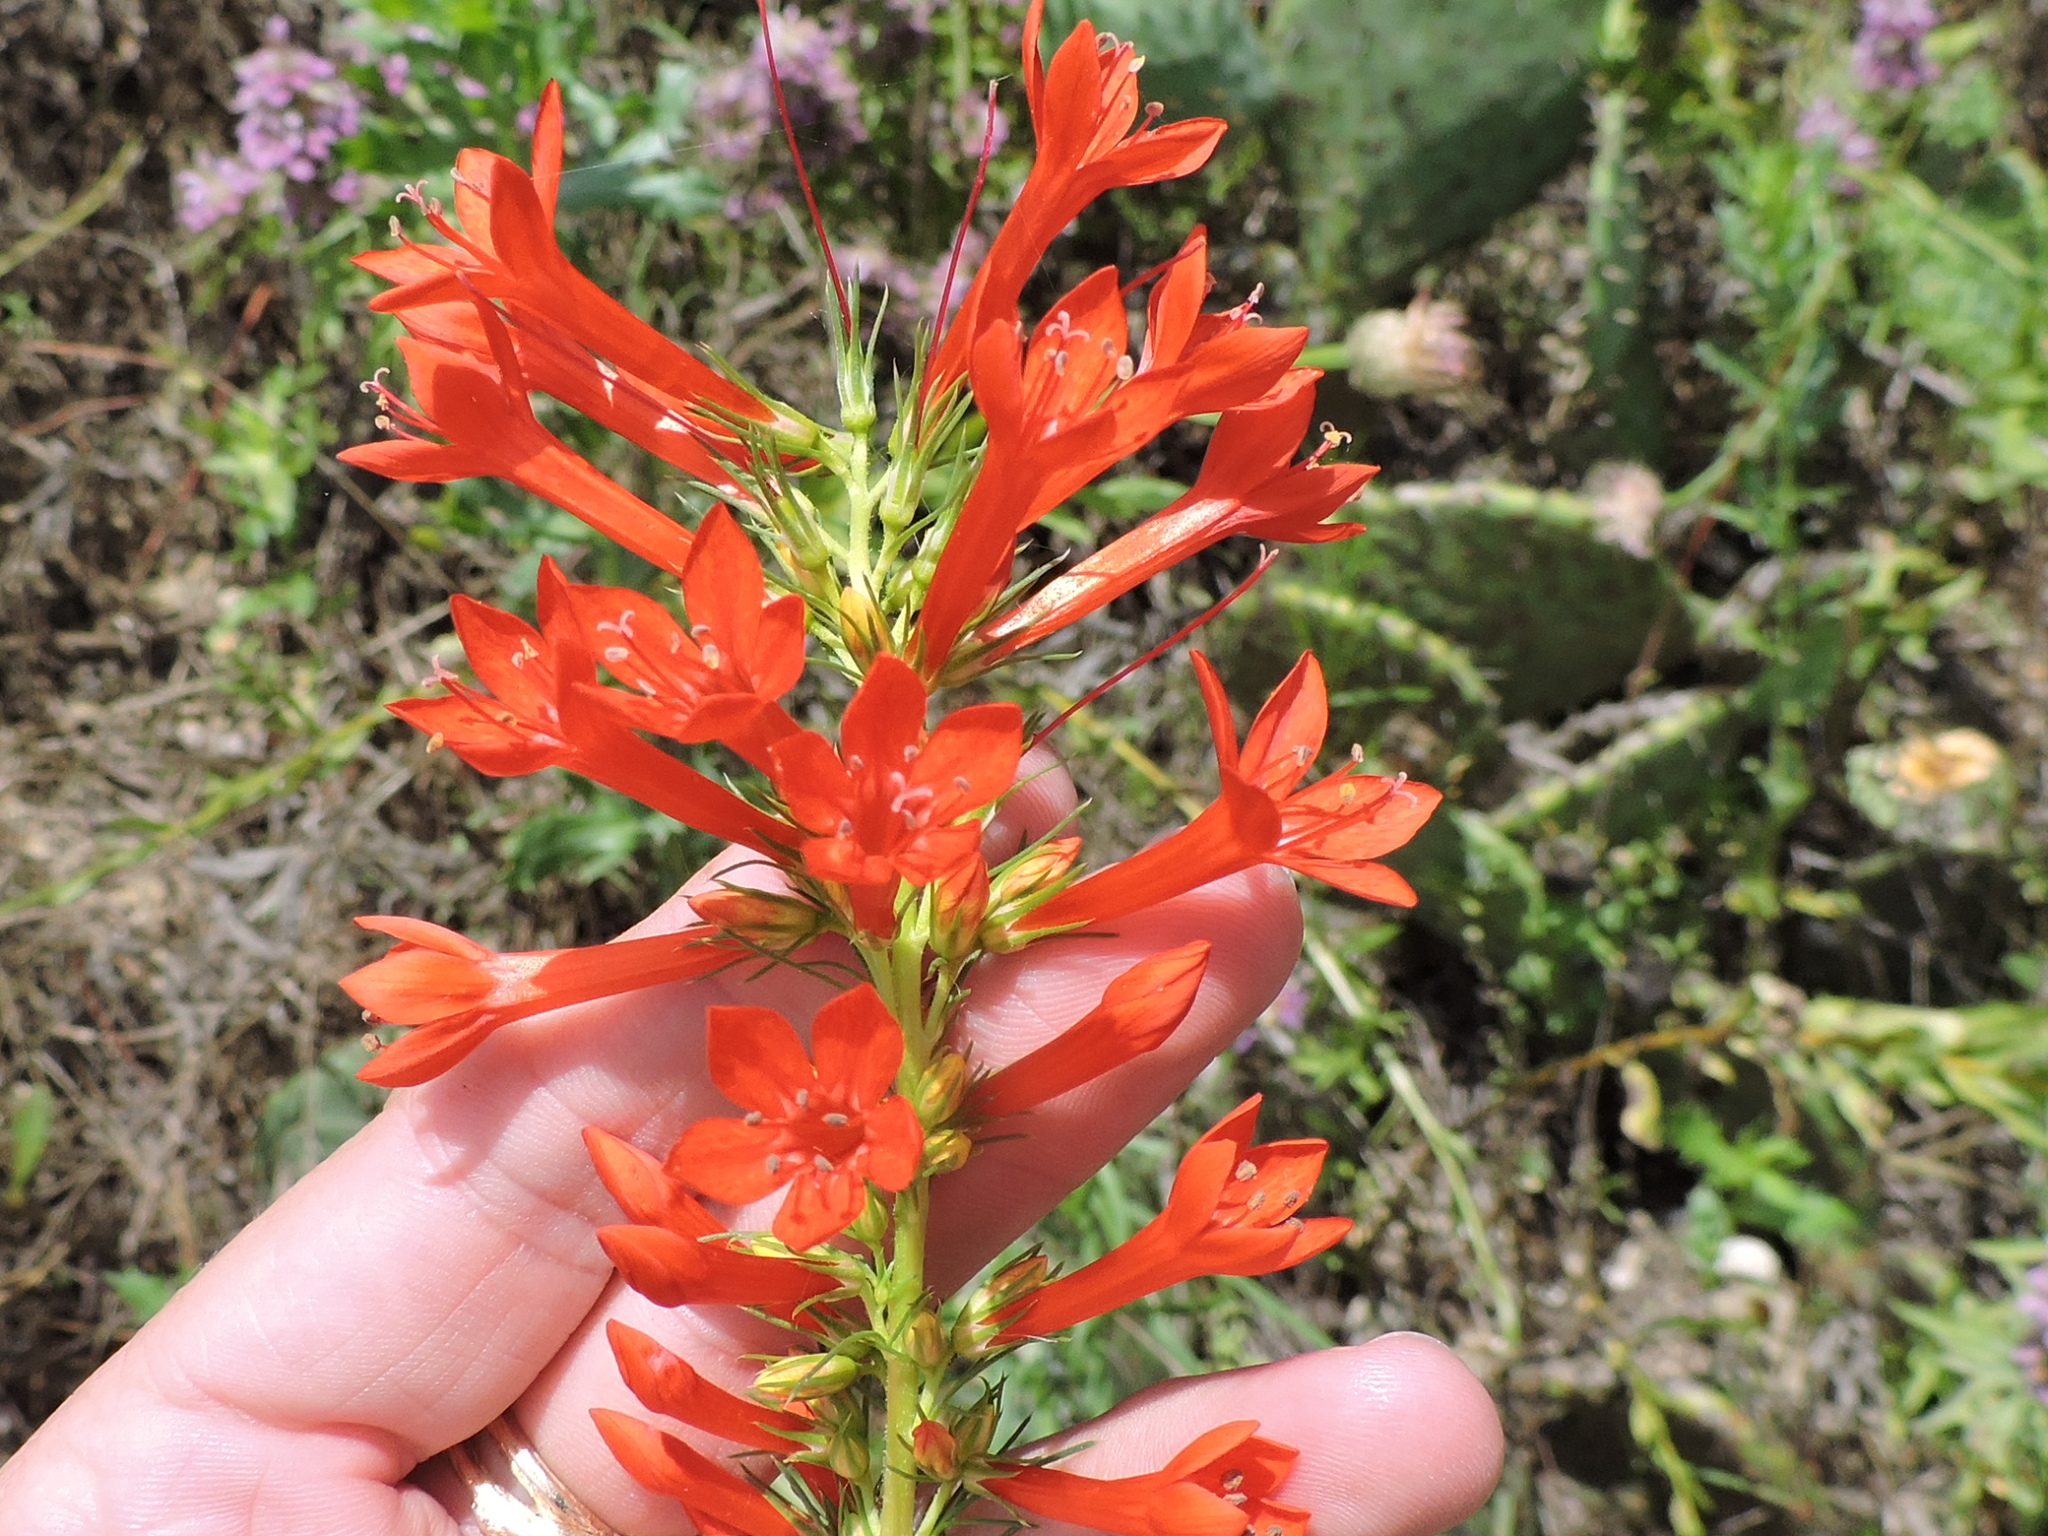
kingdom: Plantae
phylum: Tracheophyta
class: Magnoliopsida
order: Ericales
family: Polemoniaceae
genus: Ipomopsis
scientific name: Ipomopsis rubra
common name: Skyrocket
